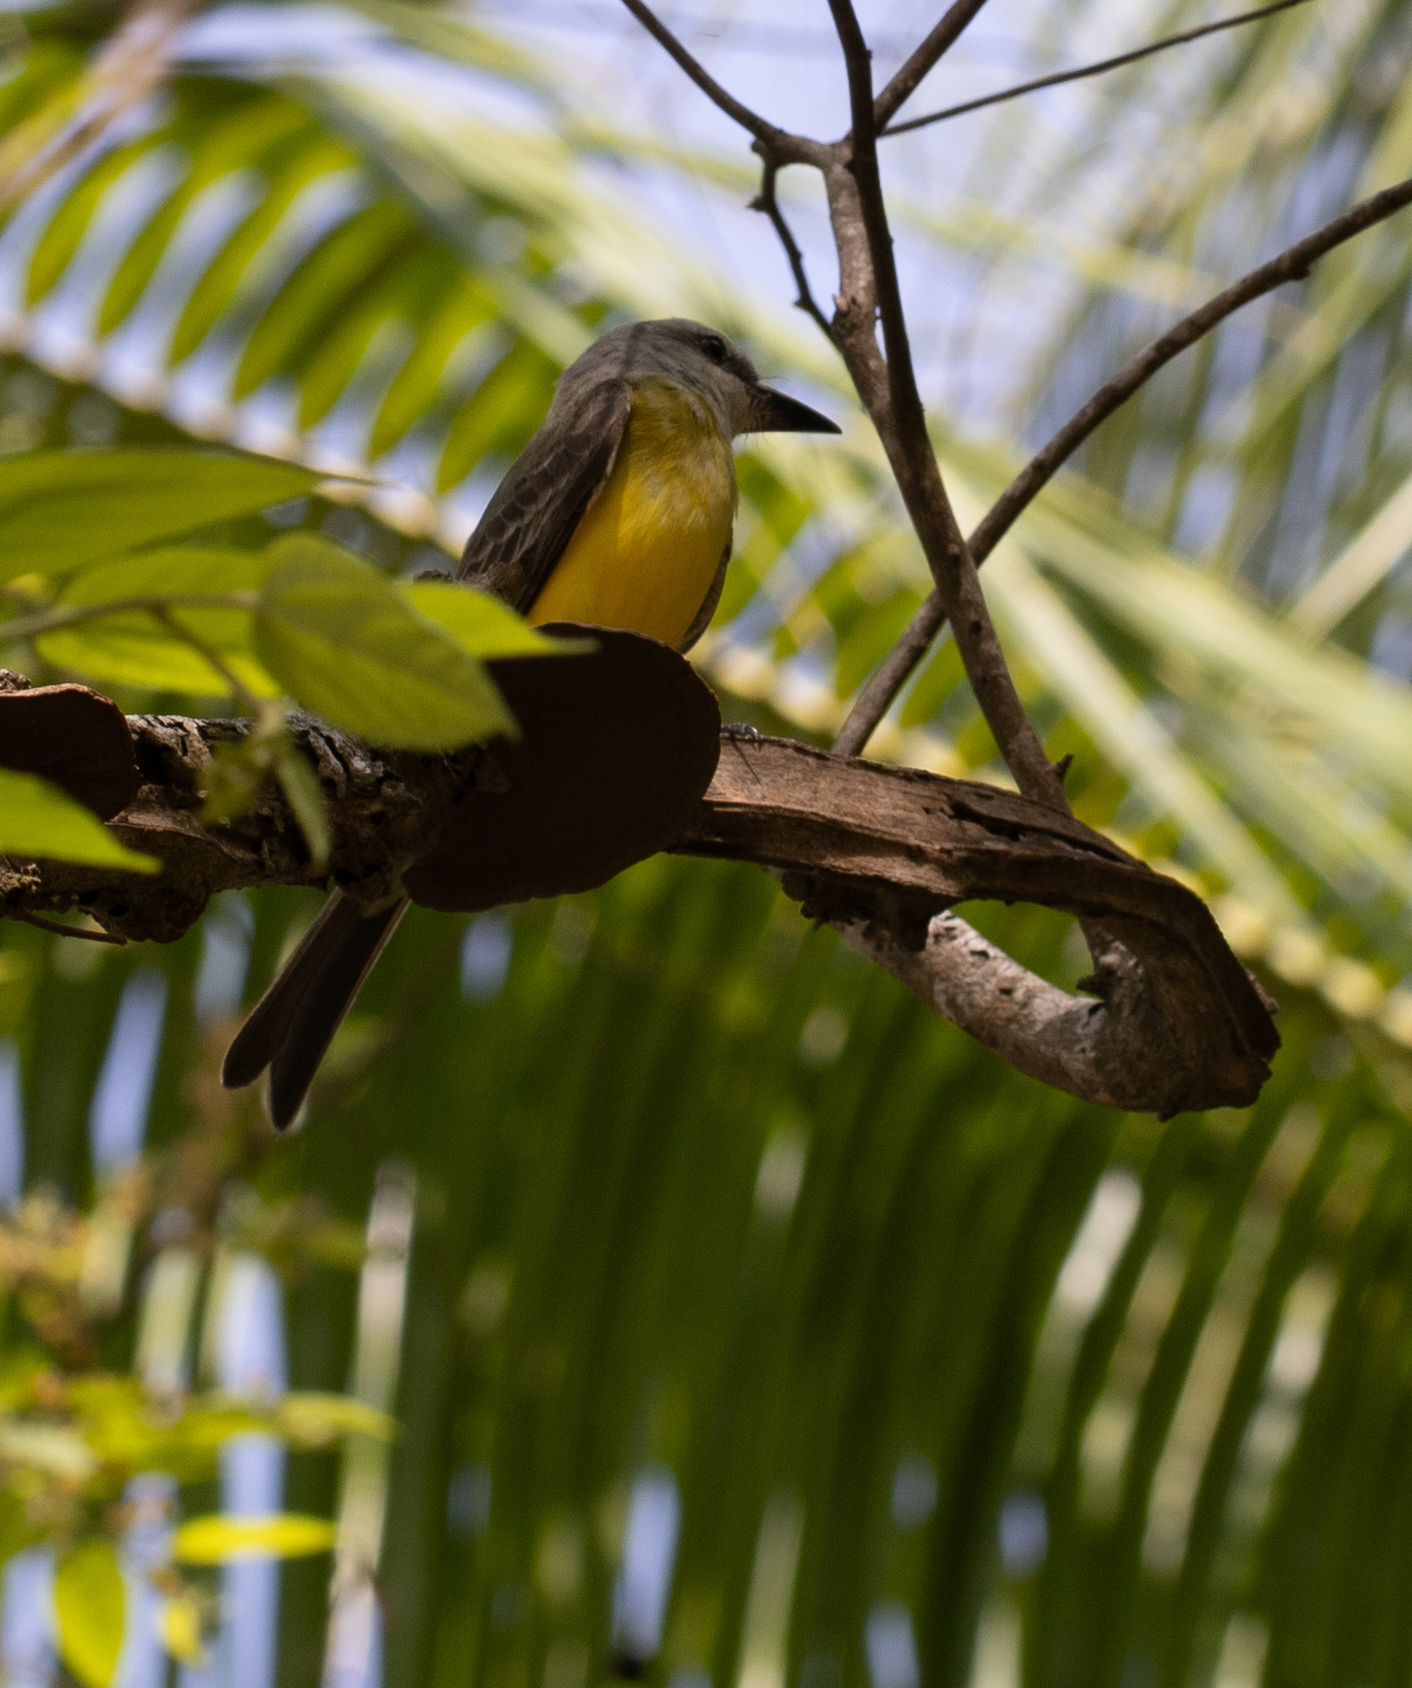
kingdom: Animalia
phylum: Chordata
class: Aves
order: Passeriformes
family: Tyrannidae
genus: Tyrannus
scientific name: Tyrannus melancholicus
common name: Tropical kingbird
